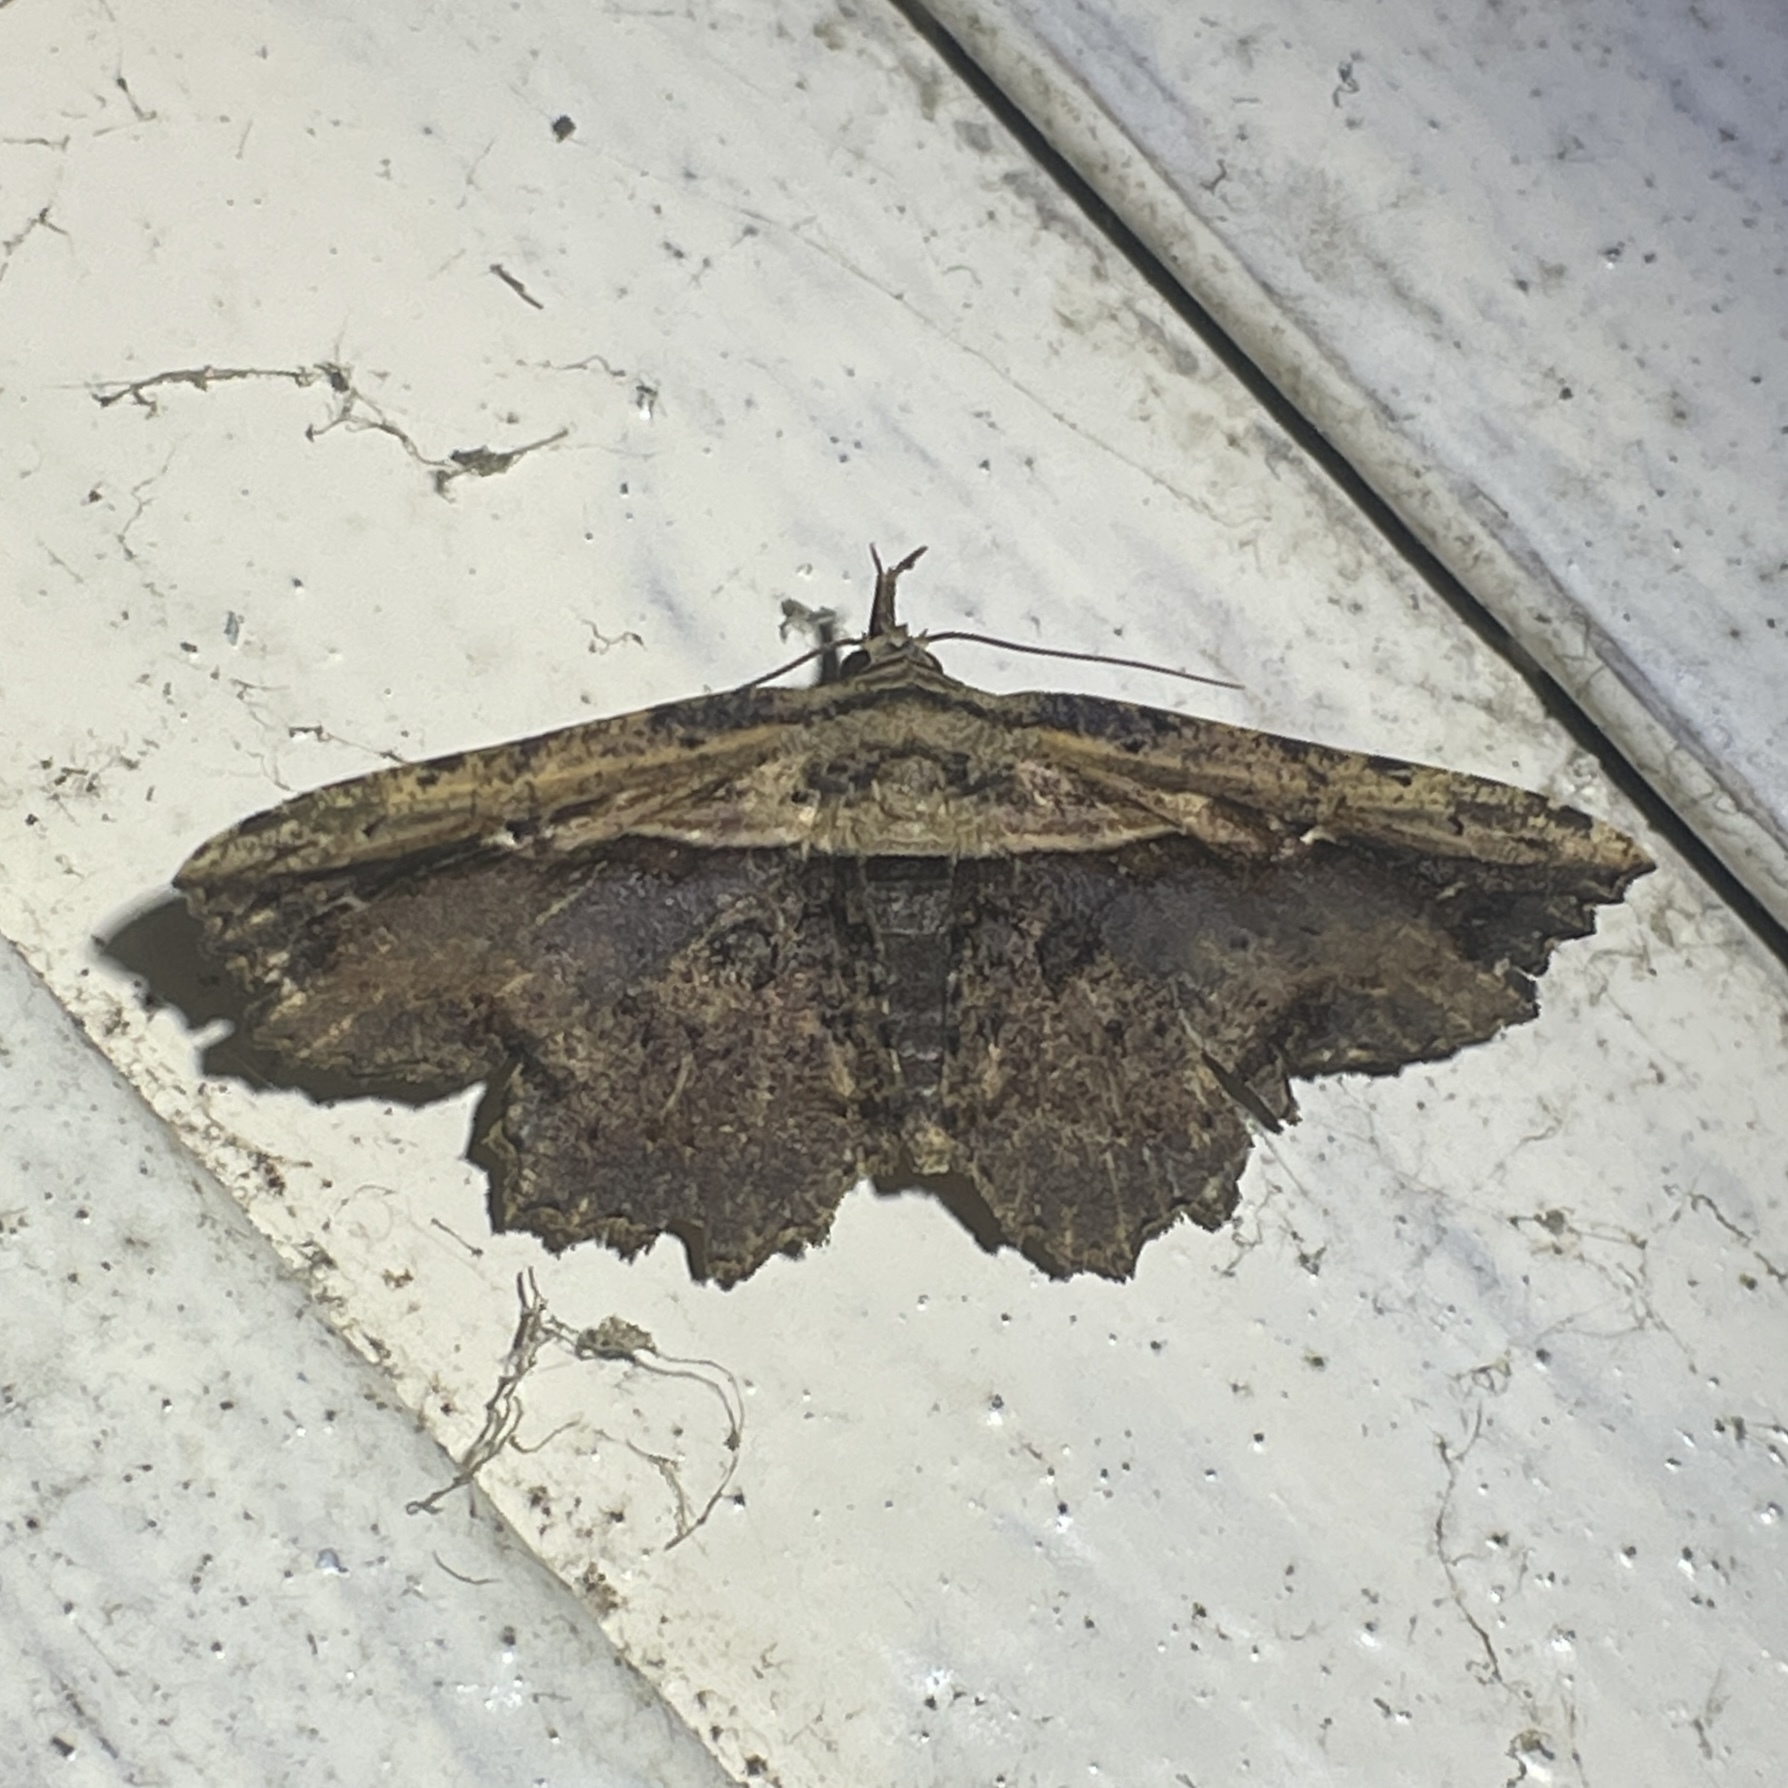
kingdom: Animalia
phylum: Arthropoda
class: Insecta
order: Lepidoptera
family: Erebidae
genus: Oroscopa
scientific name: Oroscopa diascia
